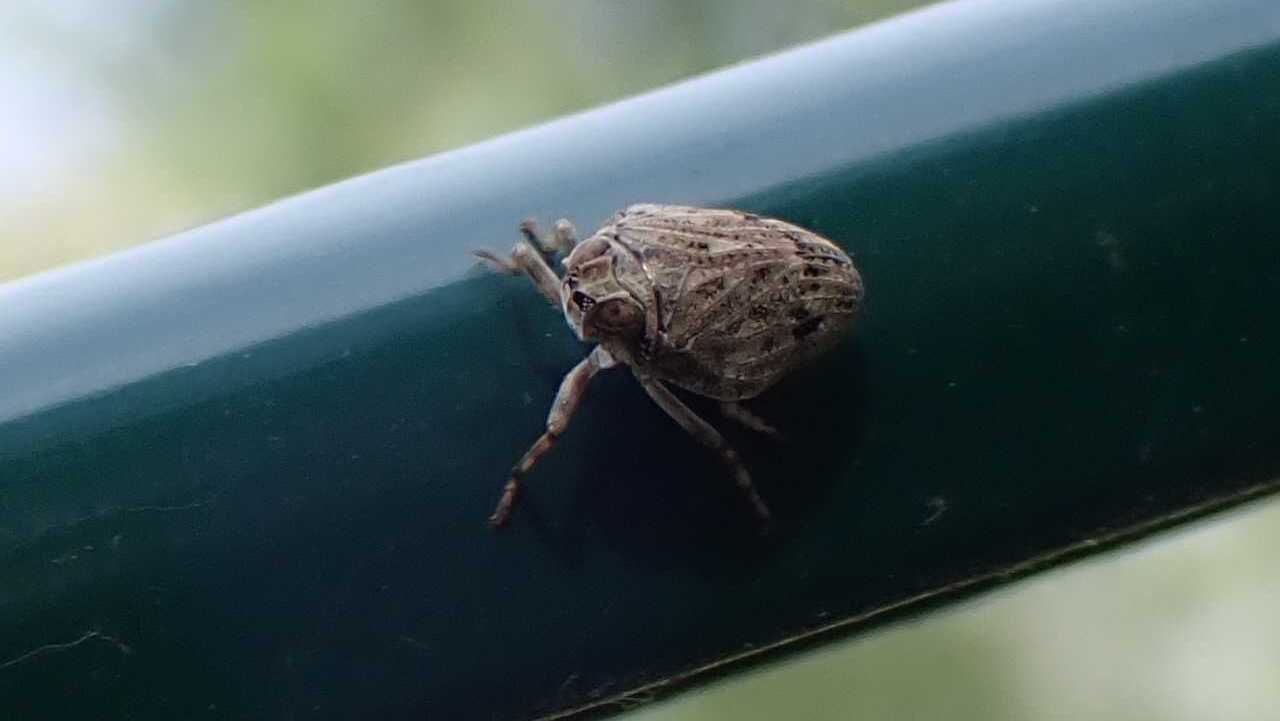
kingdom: Animalia
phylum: Arthropoda
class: Insecta
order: Hemiptera
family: Issidae
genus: Issus
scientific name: Issus coleoptratus
